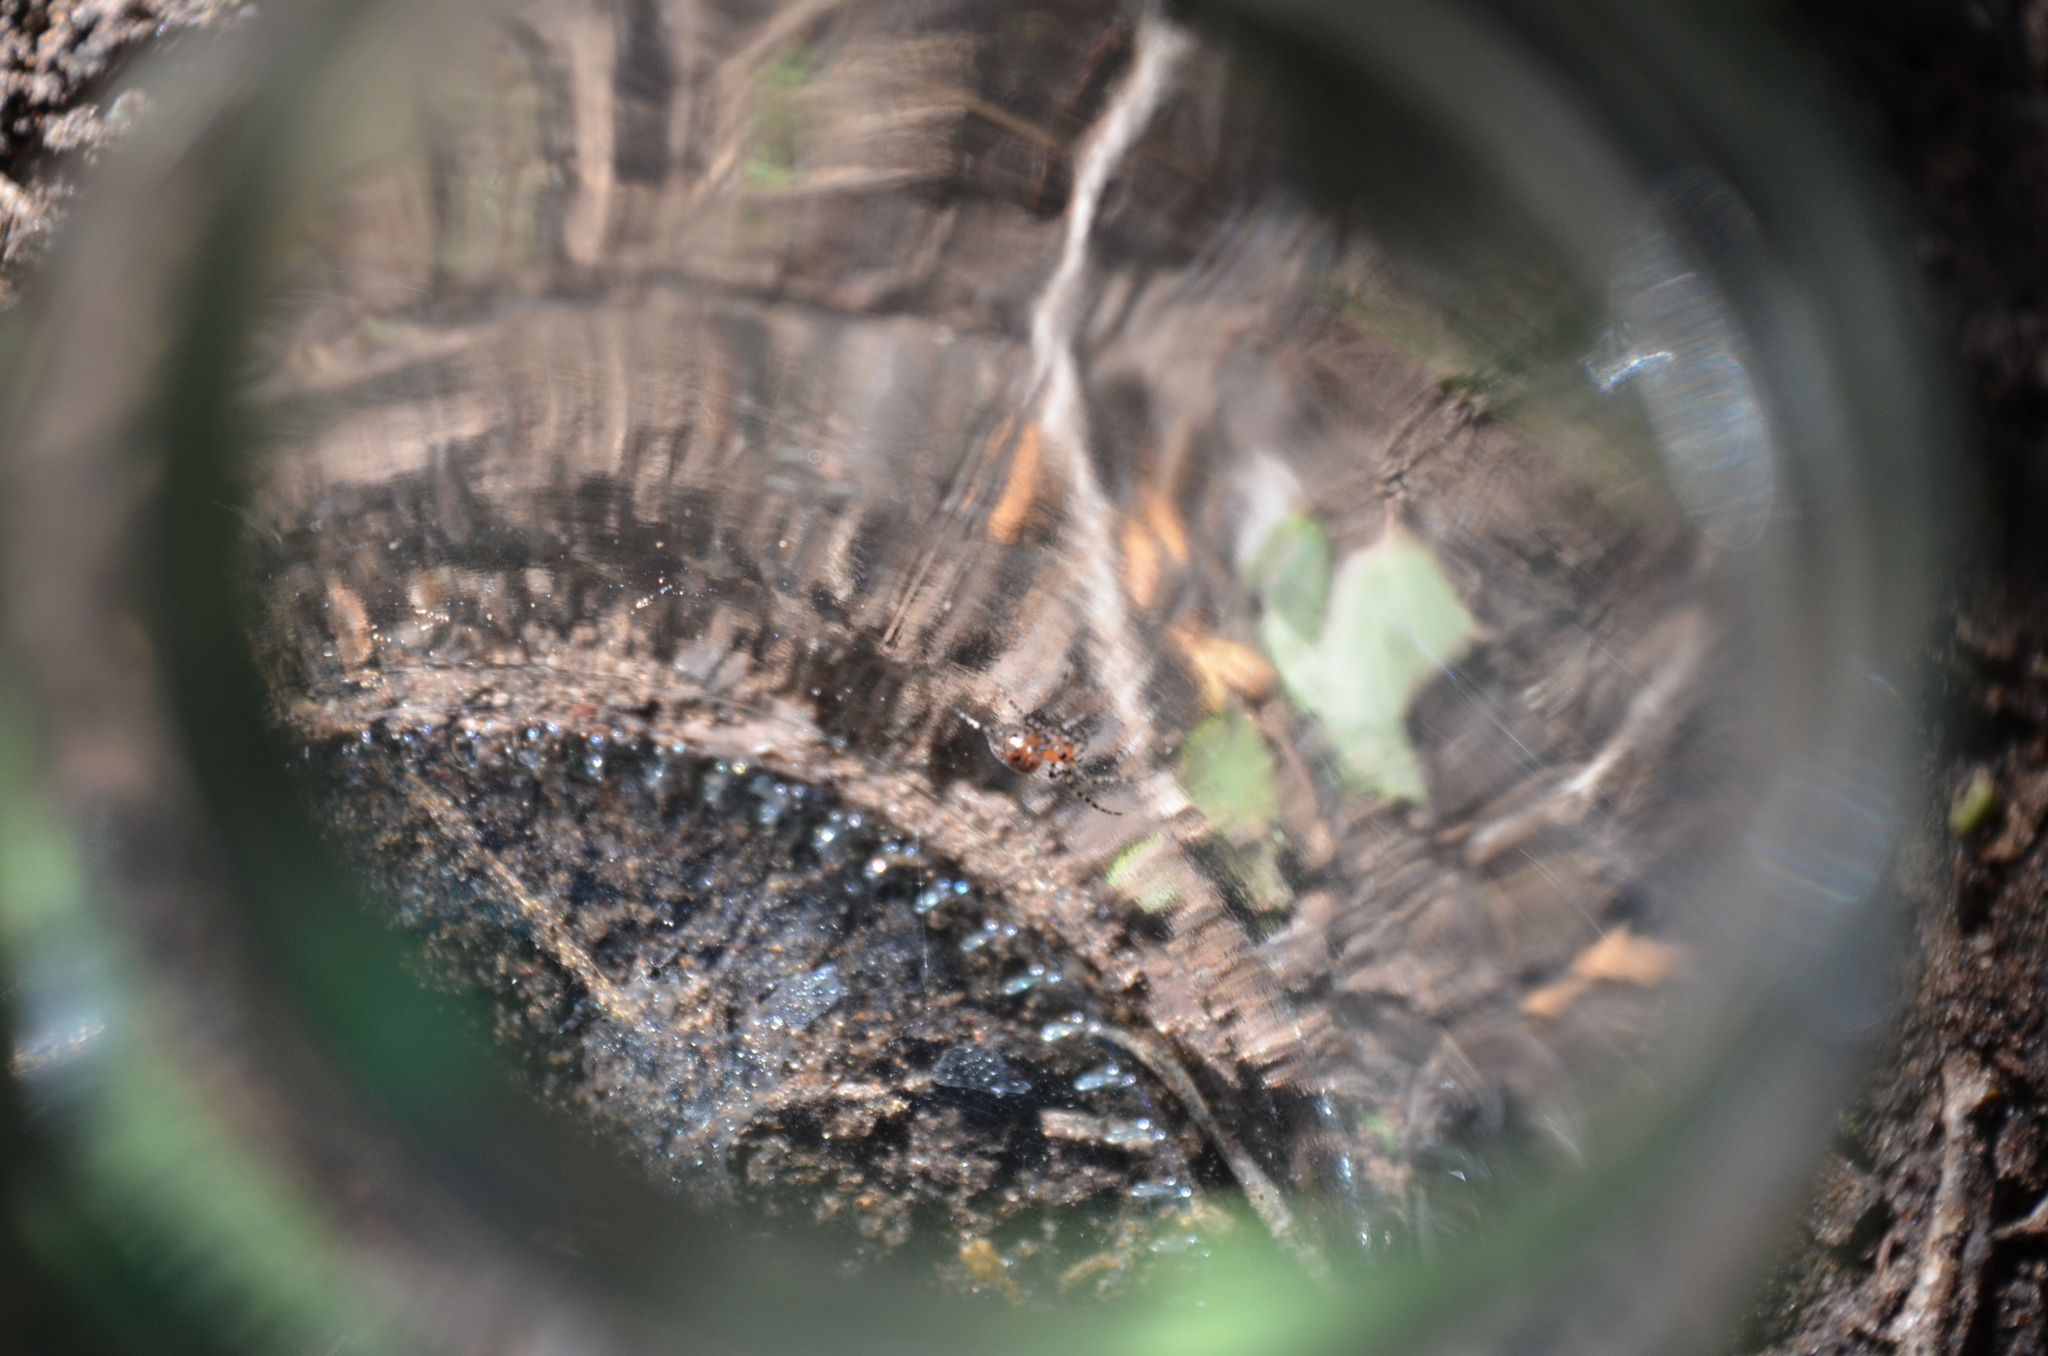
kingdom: Animalia
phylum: Arthropoda
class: Arachnida
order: Araneae
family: Araneidae
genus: Alpaida
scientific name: Alpaida gallardoi
